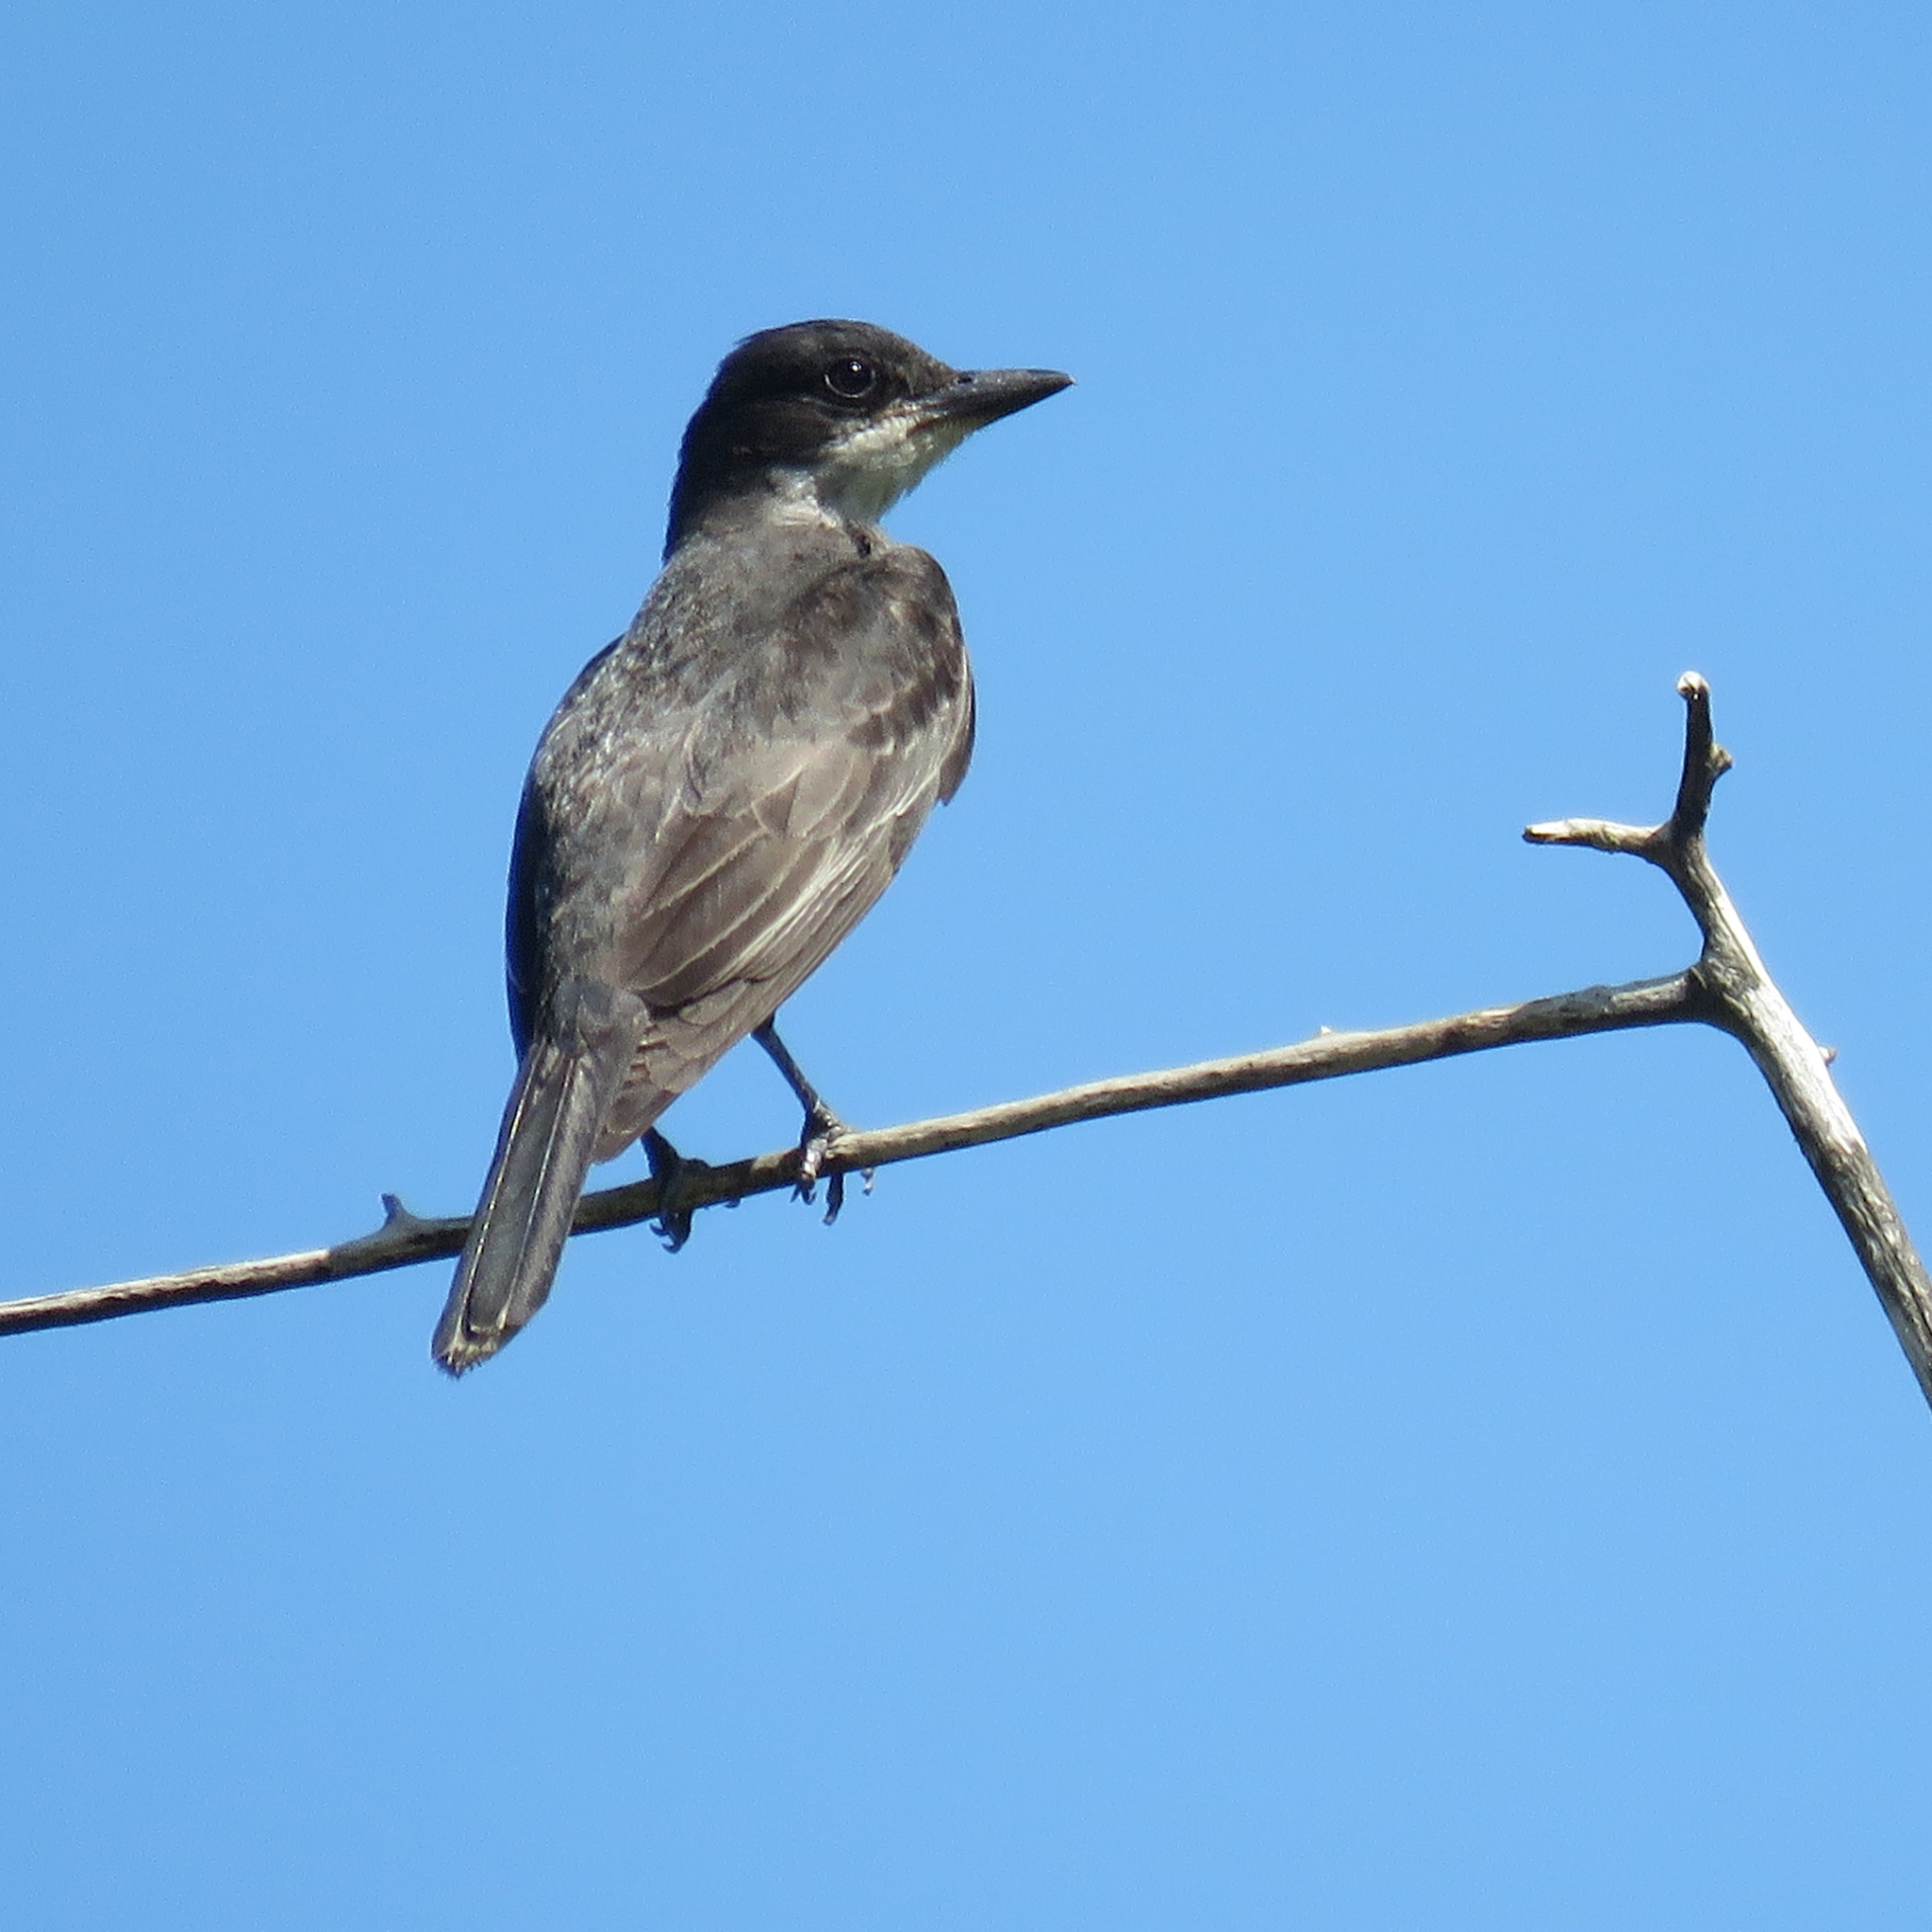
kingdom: Animalia
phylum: Chordata
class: Aves
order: Passeriformes
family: Tyrannidae
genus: Tyrannus
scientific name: Tyrannus tyrannus
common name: Eastern kingbird
